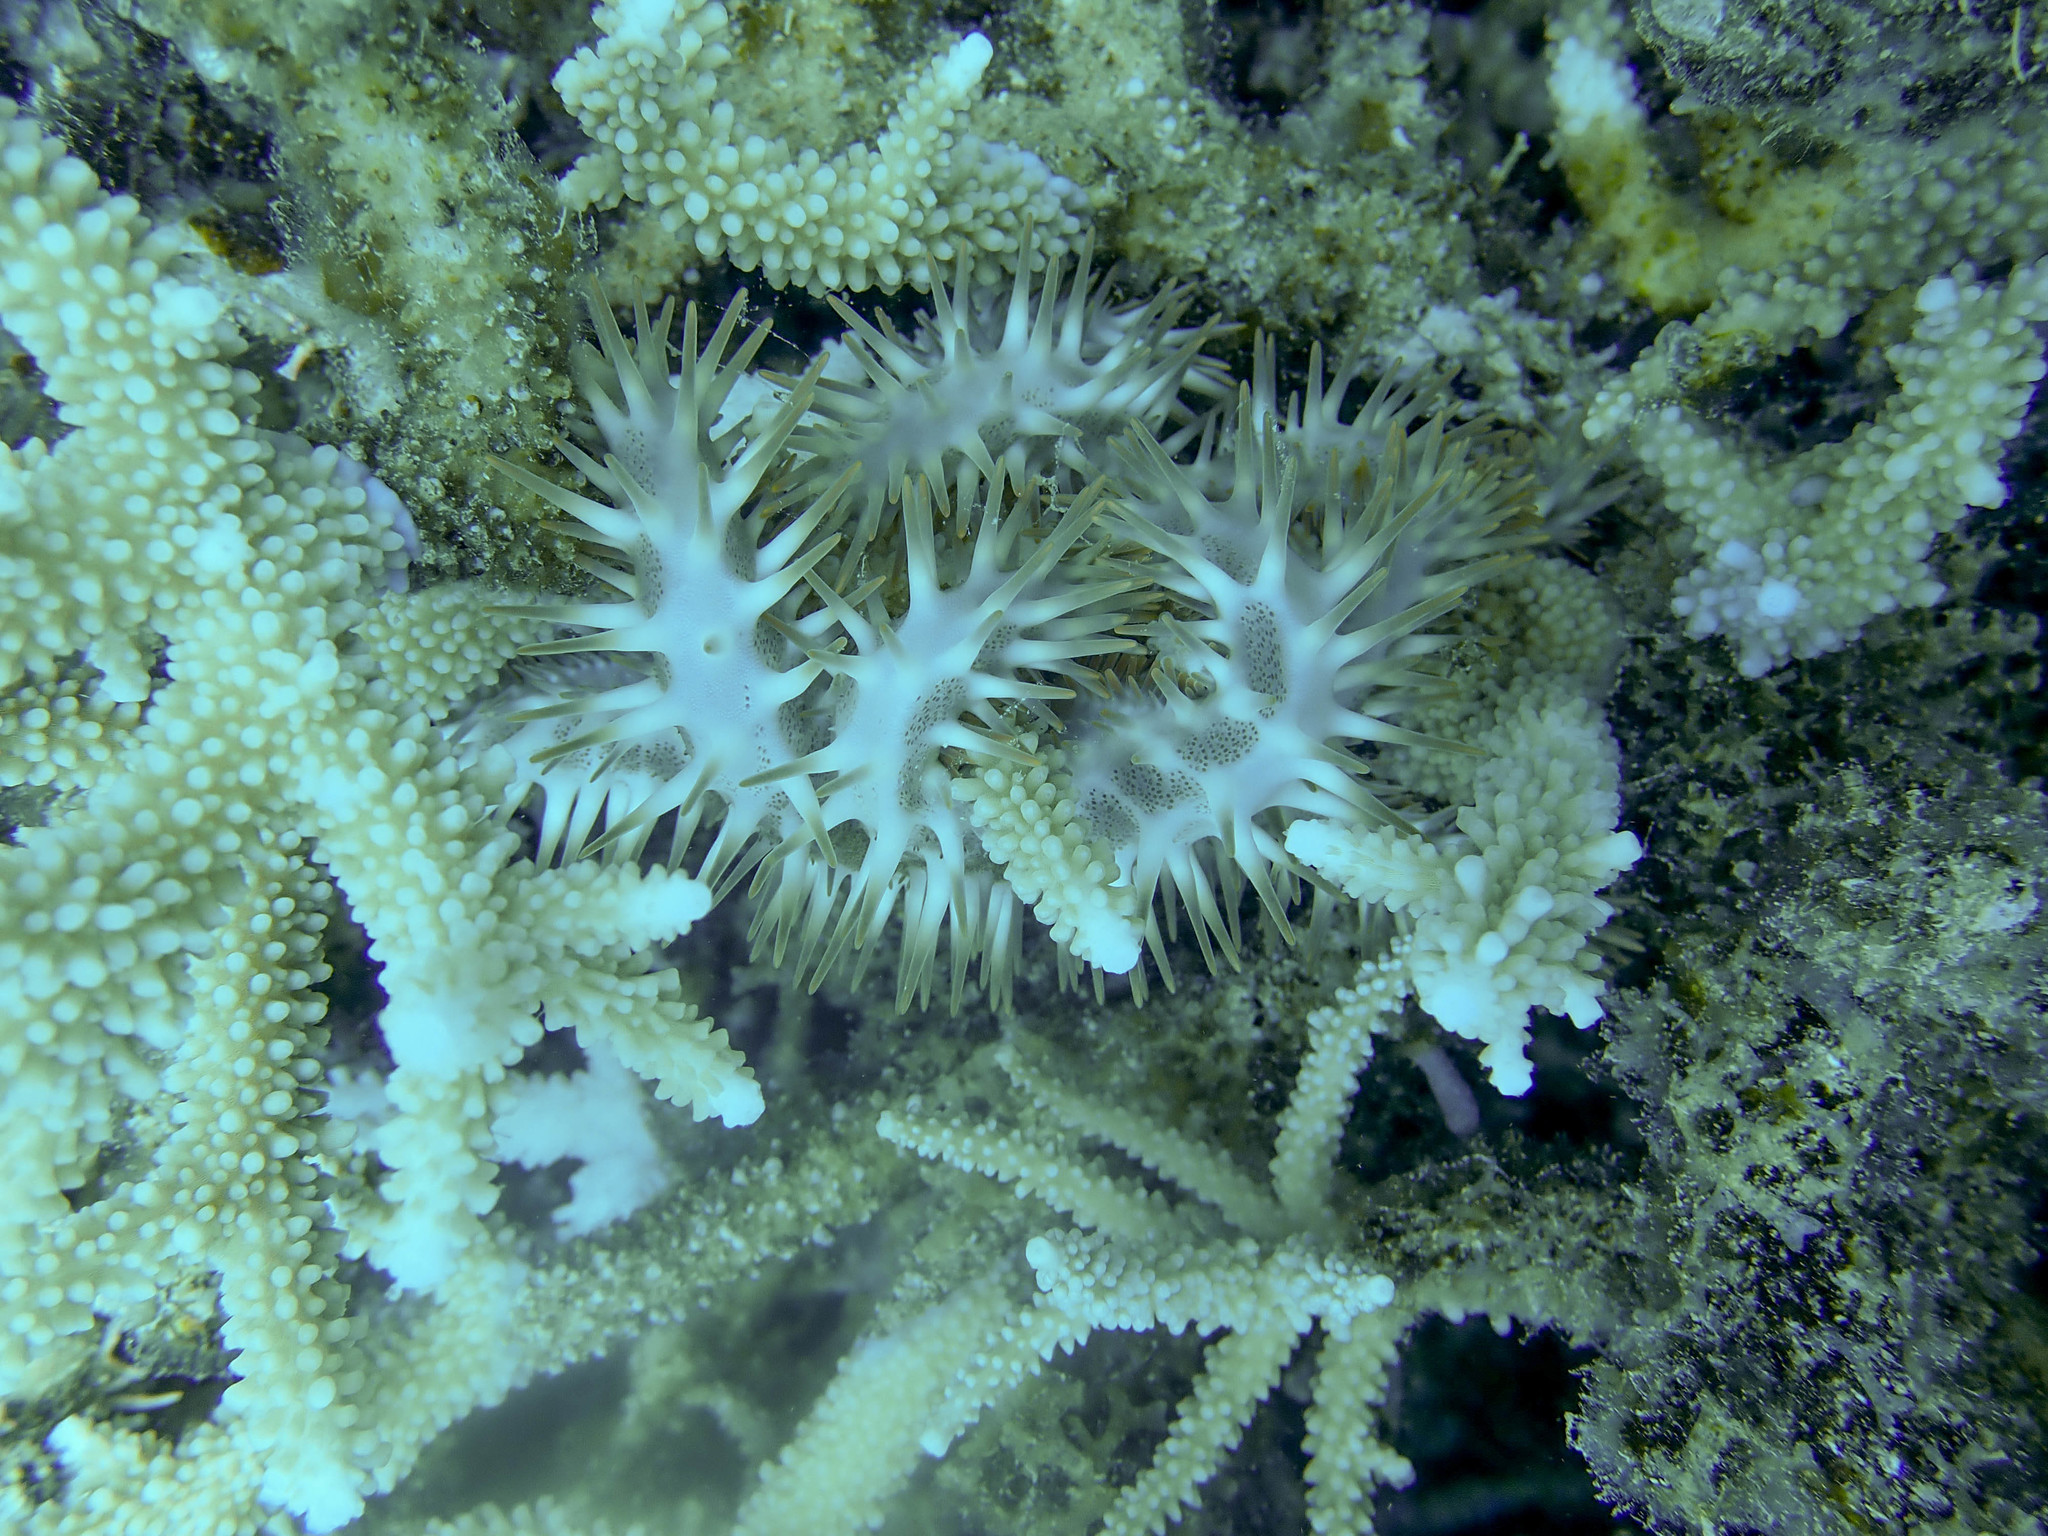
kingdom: Animalia
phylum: Echinodermata
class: Asteroidea
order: Valvatida
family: Acanthasteridae
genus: Acanthaster
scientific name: Acanthaster planci
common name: Crown-of-thorns
